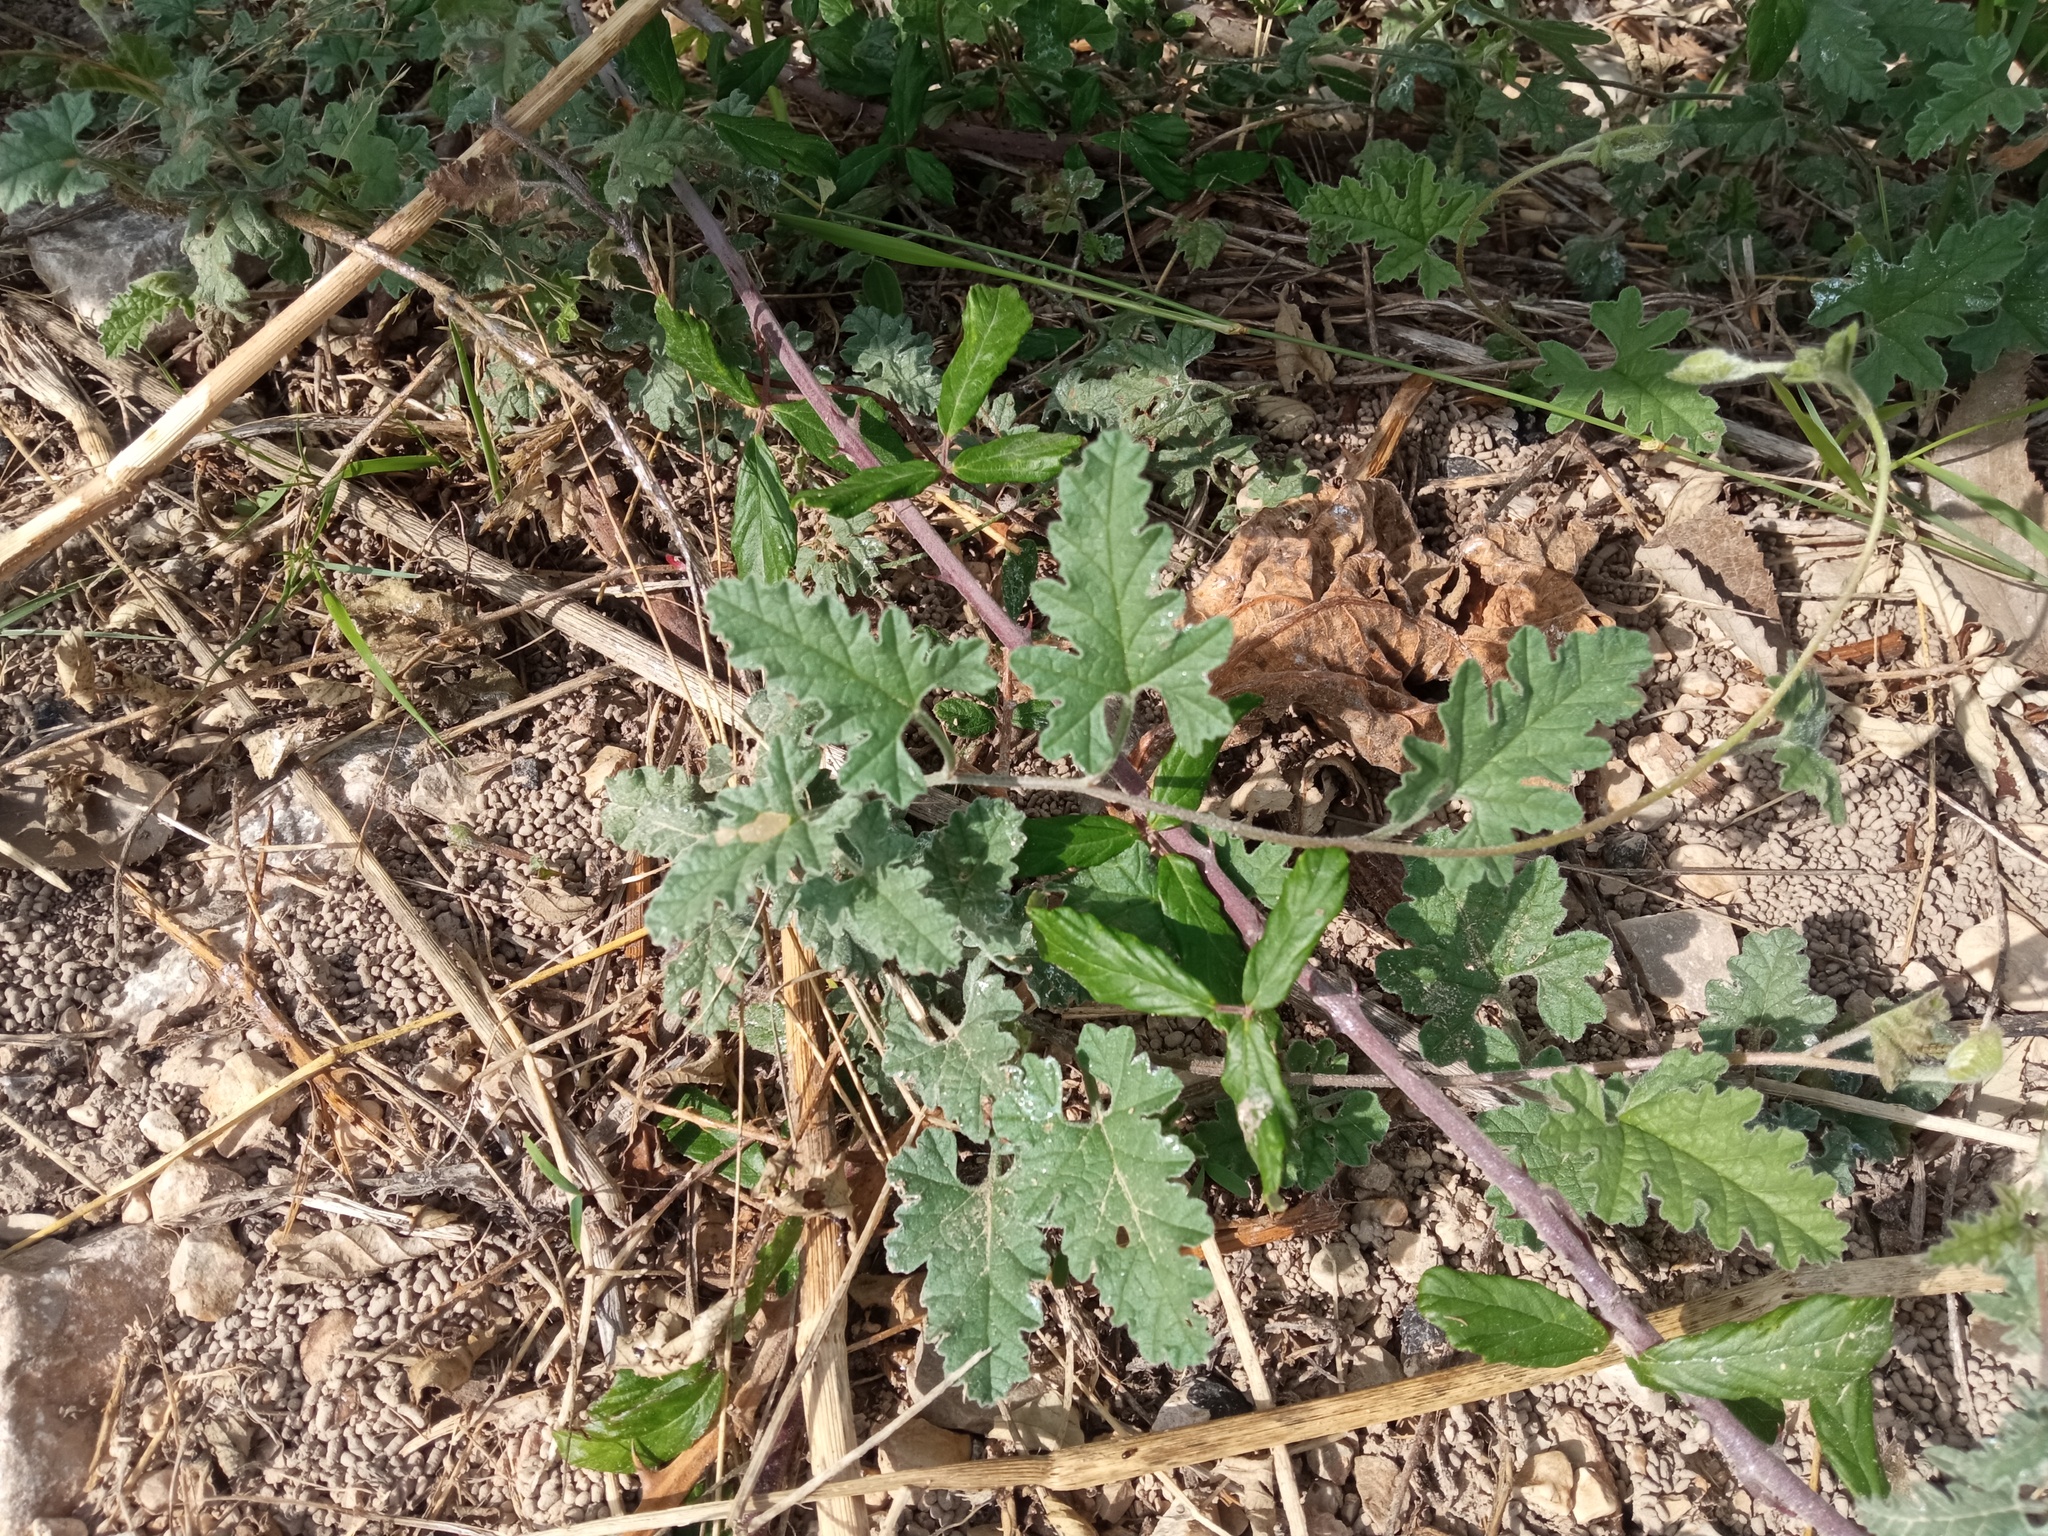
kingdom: Plantae
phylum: Tracheophyta
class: Magnoliopsida
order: Solanales
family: Convolvulaceae
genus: Convolvulus
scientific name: Convolvulus althaeoides
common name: Mallow bindweed
